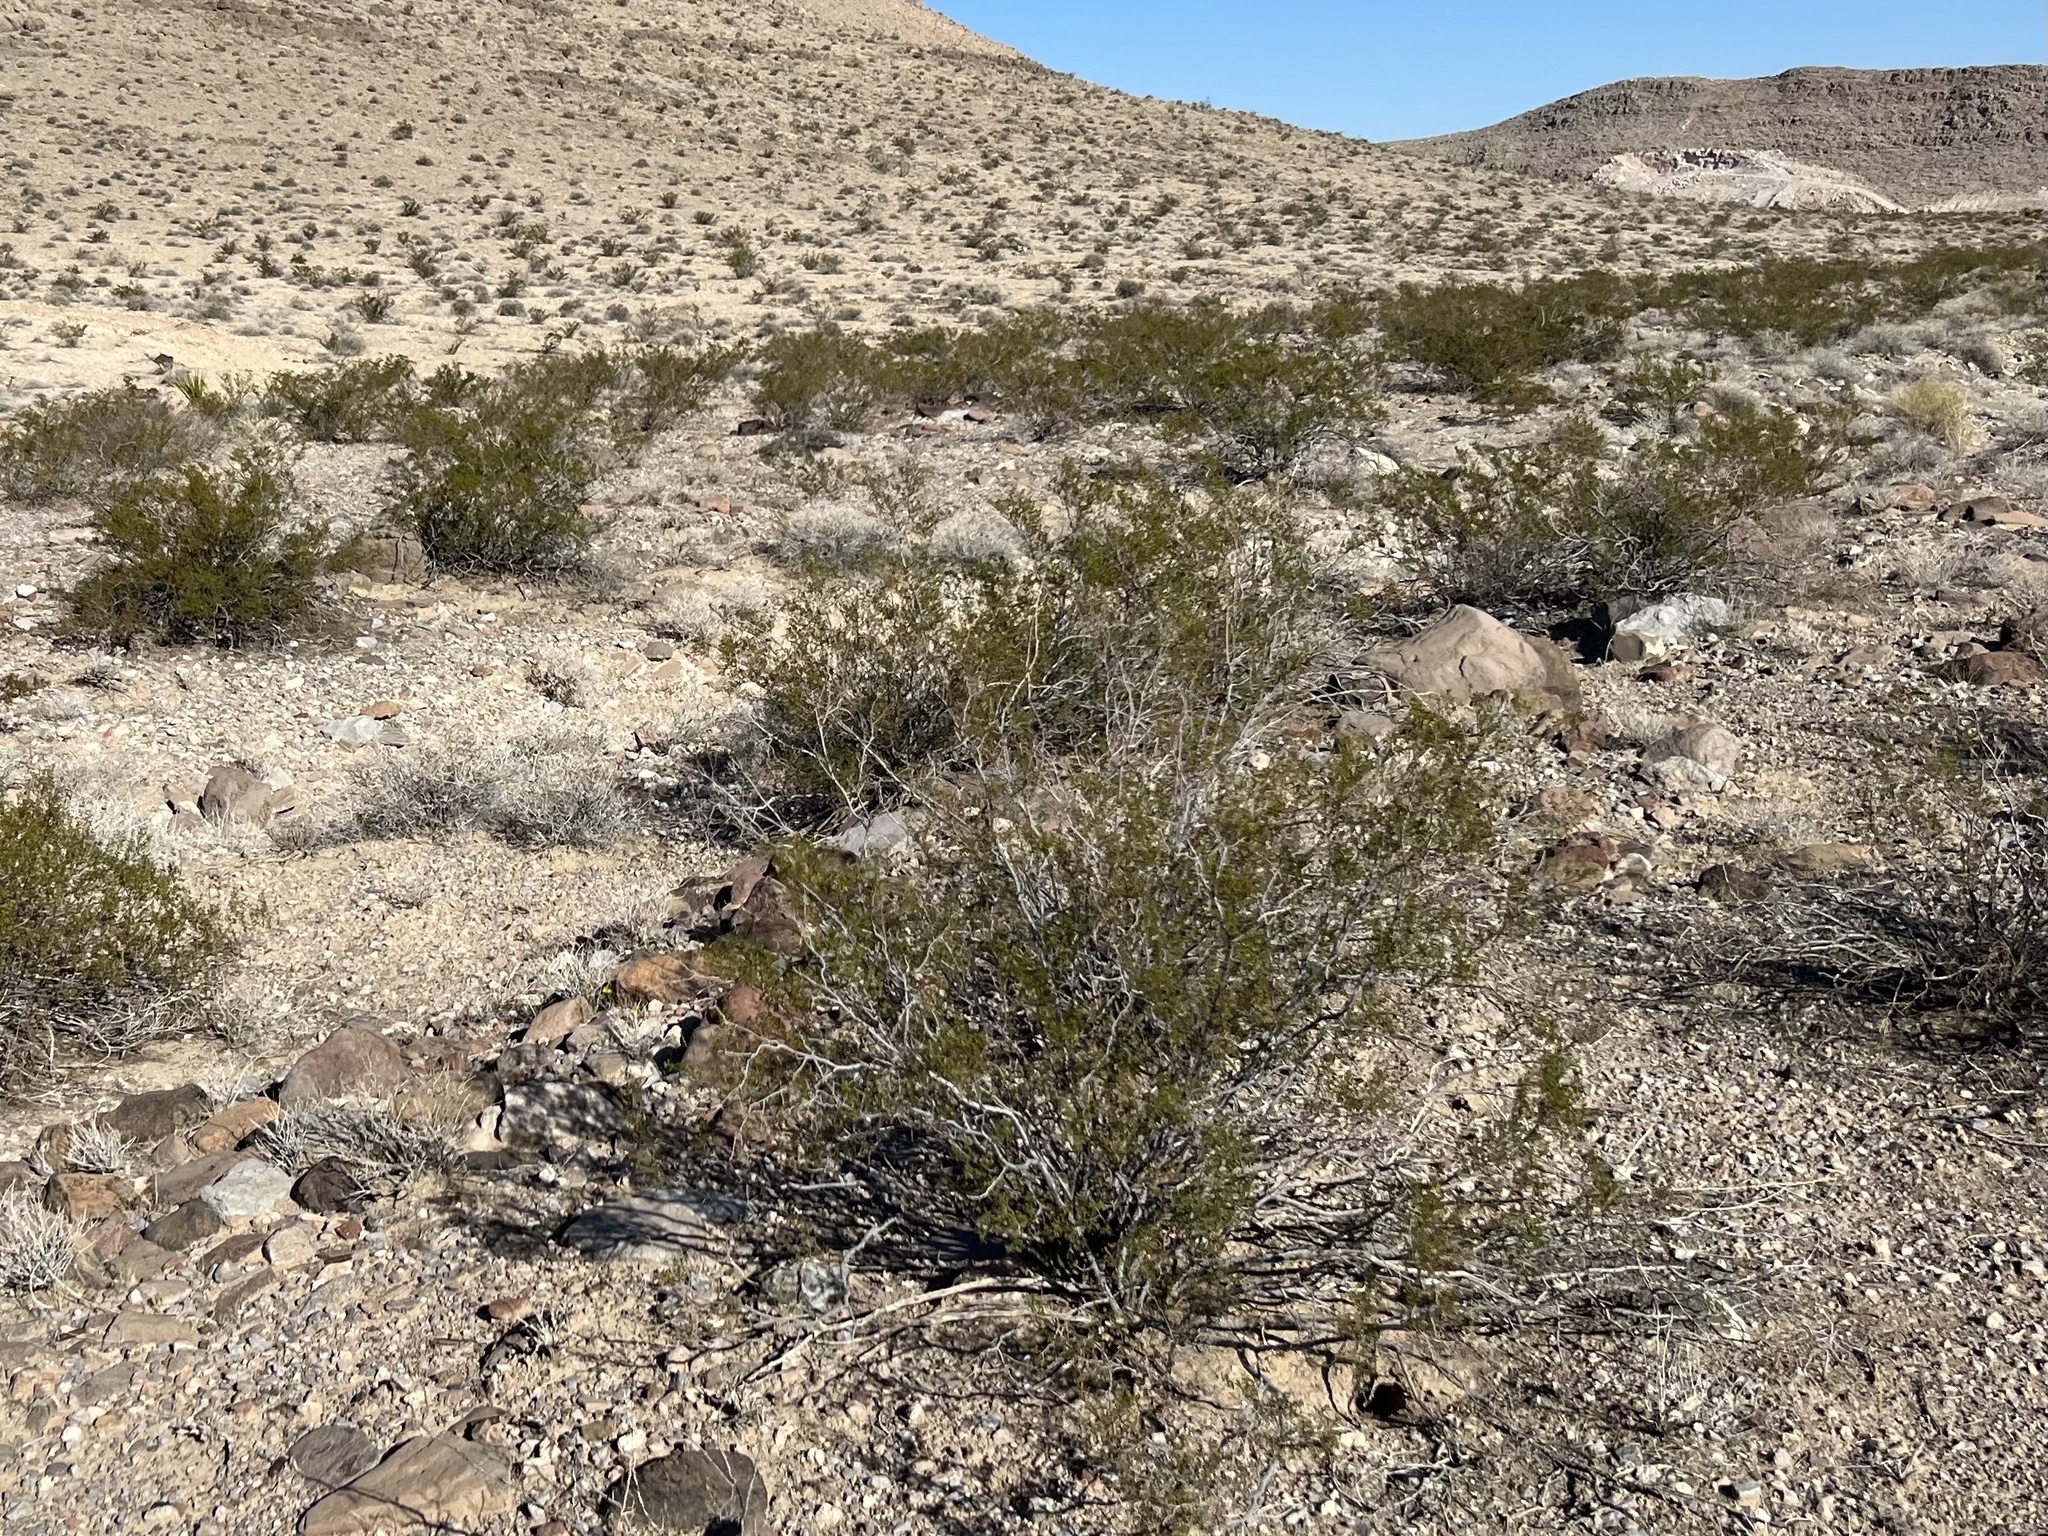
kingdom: Plantae
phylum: Tracheophyta
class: Magnoliopsida
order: Zygophyllales
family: Zygophyllaceae
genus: Larrea
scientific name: Larrea tridentata
